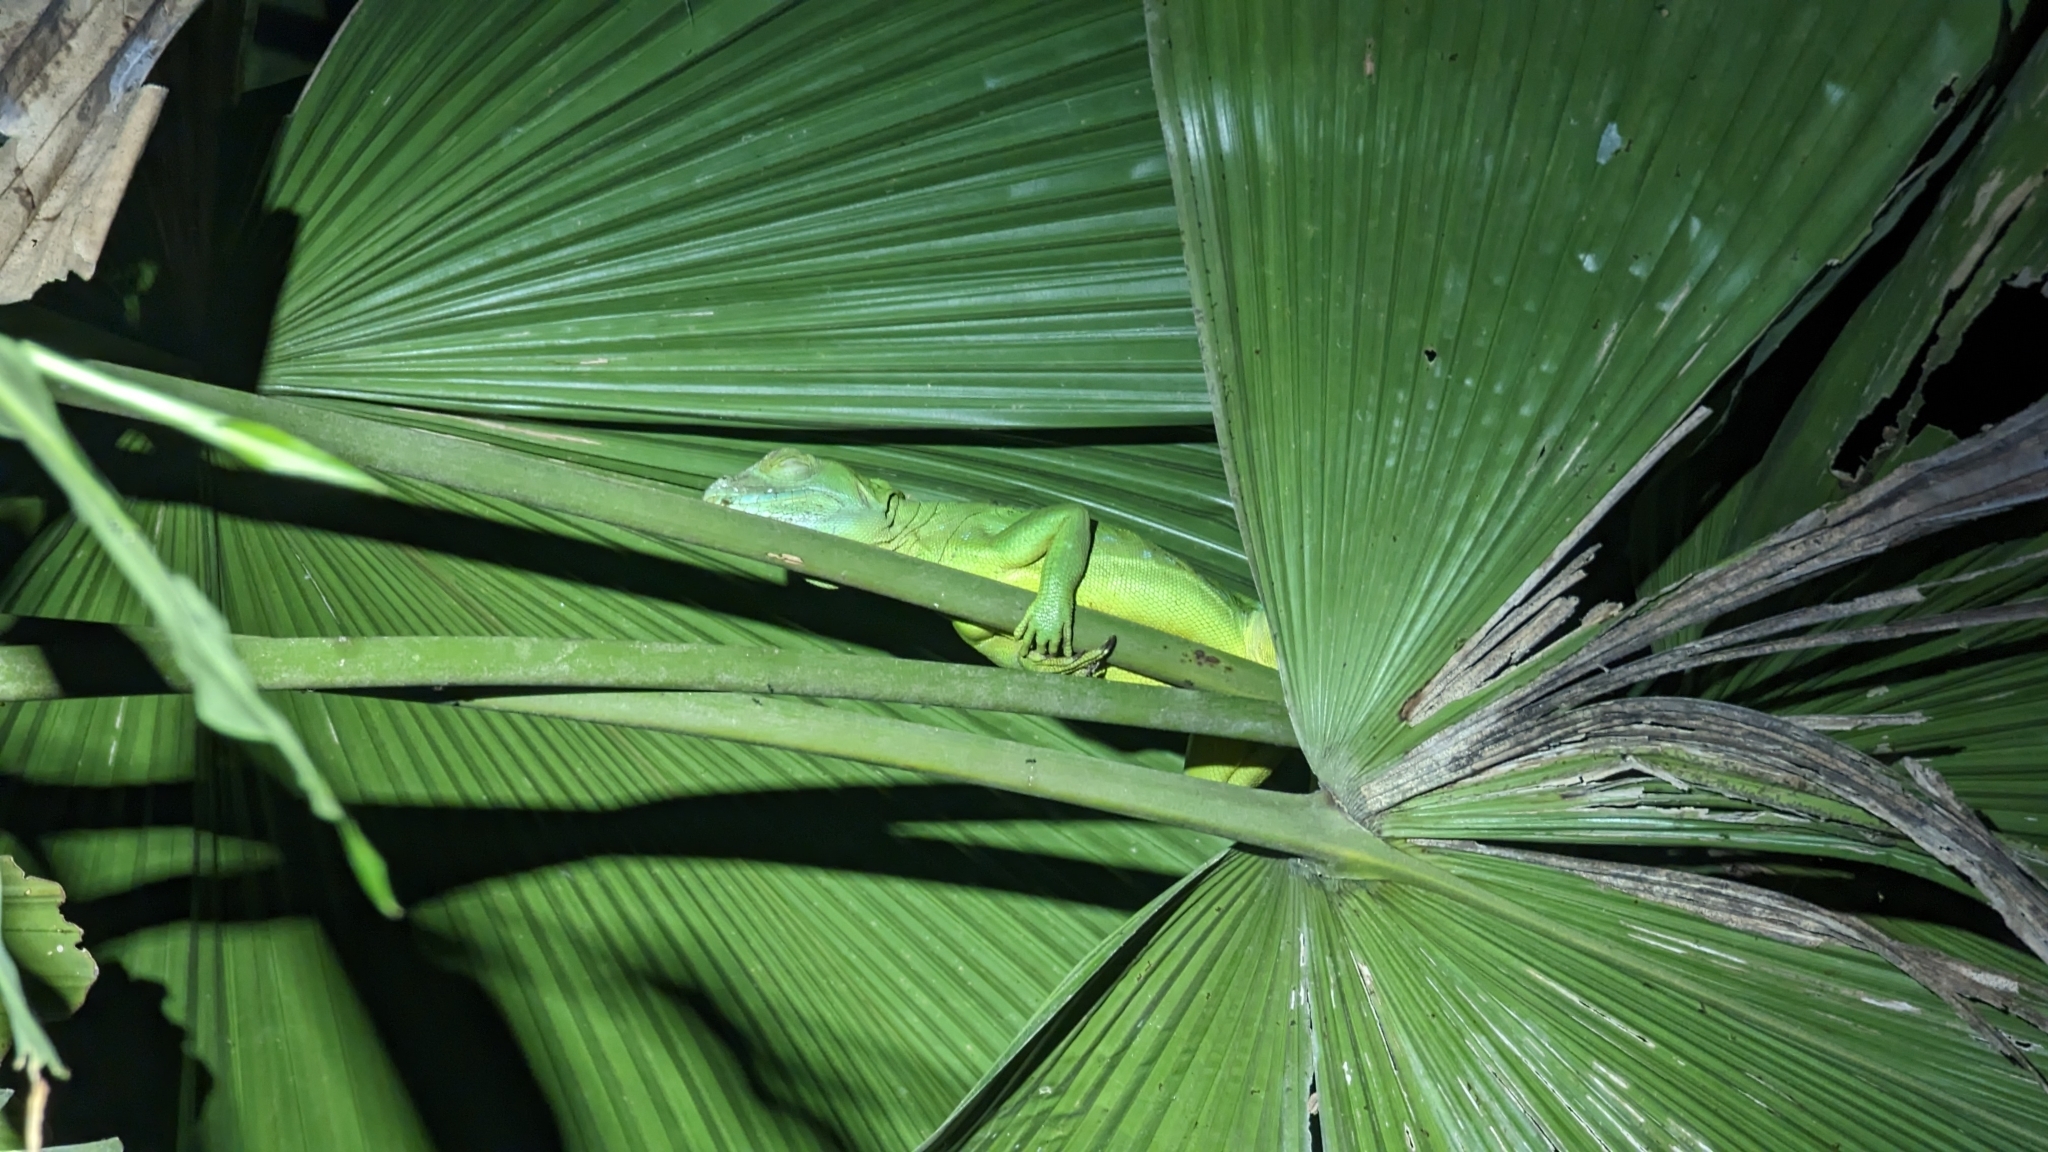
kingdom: Animalia
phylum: Chordata
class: Squamata
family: Corytophanidae
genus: Basiliscus
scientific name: Basiliscus plumifrons
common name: Green basilisk
